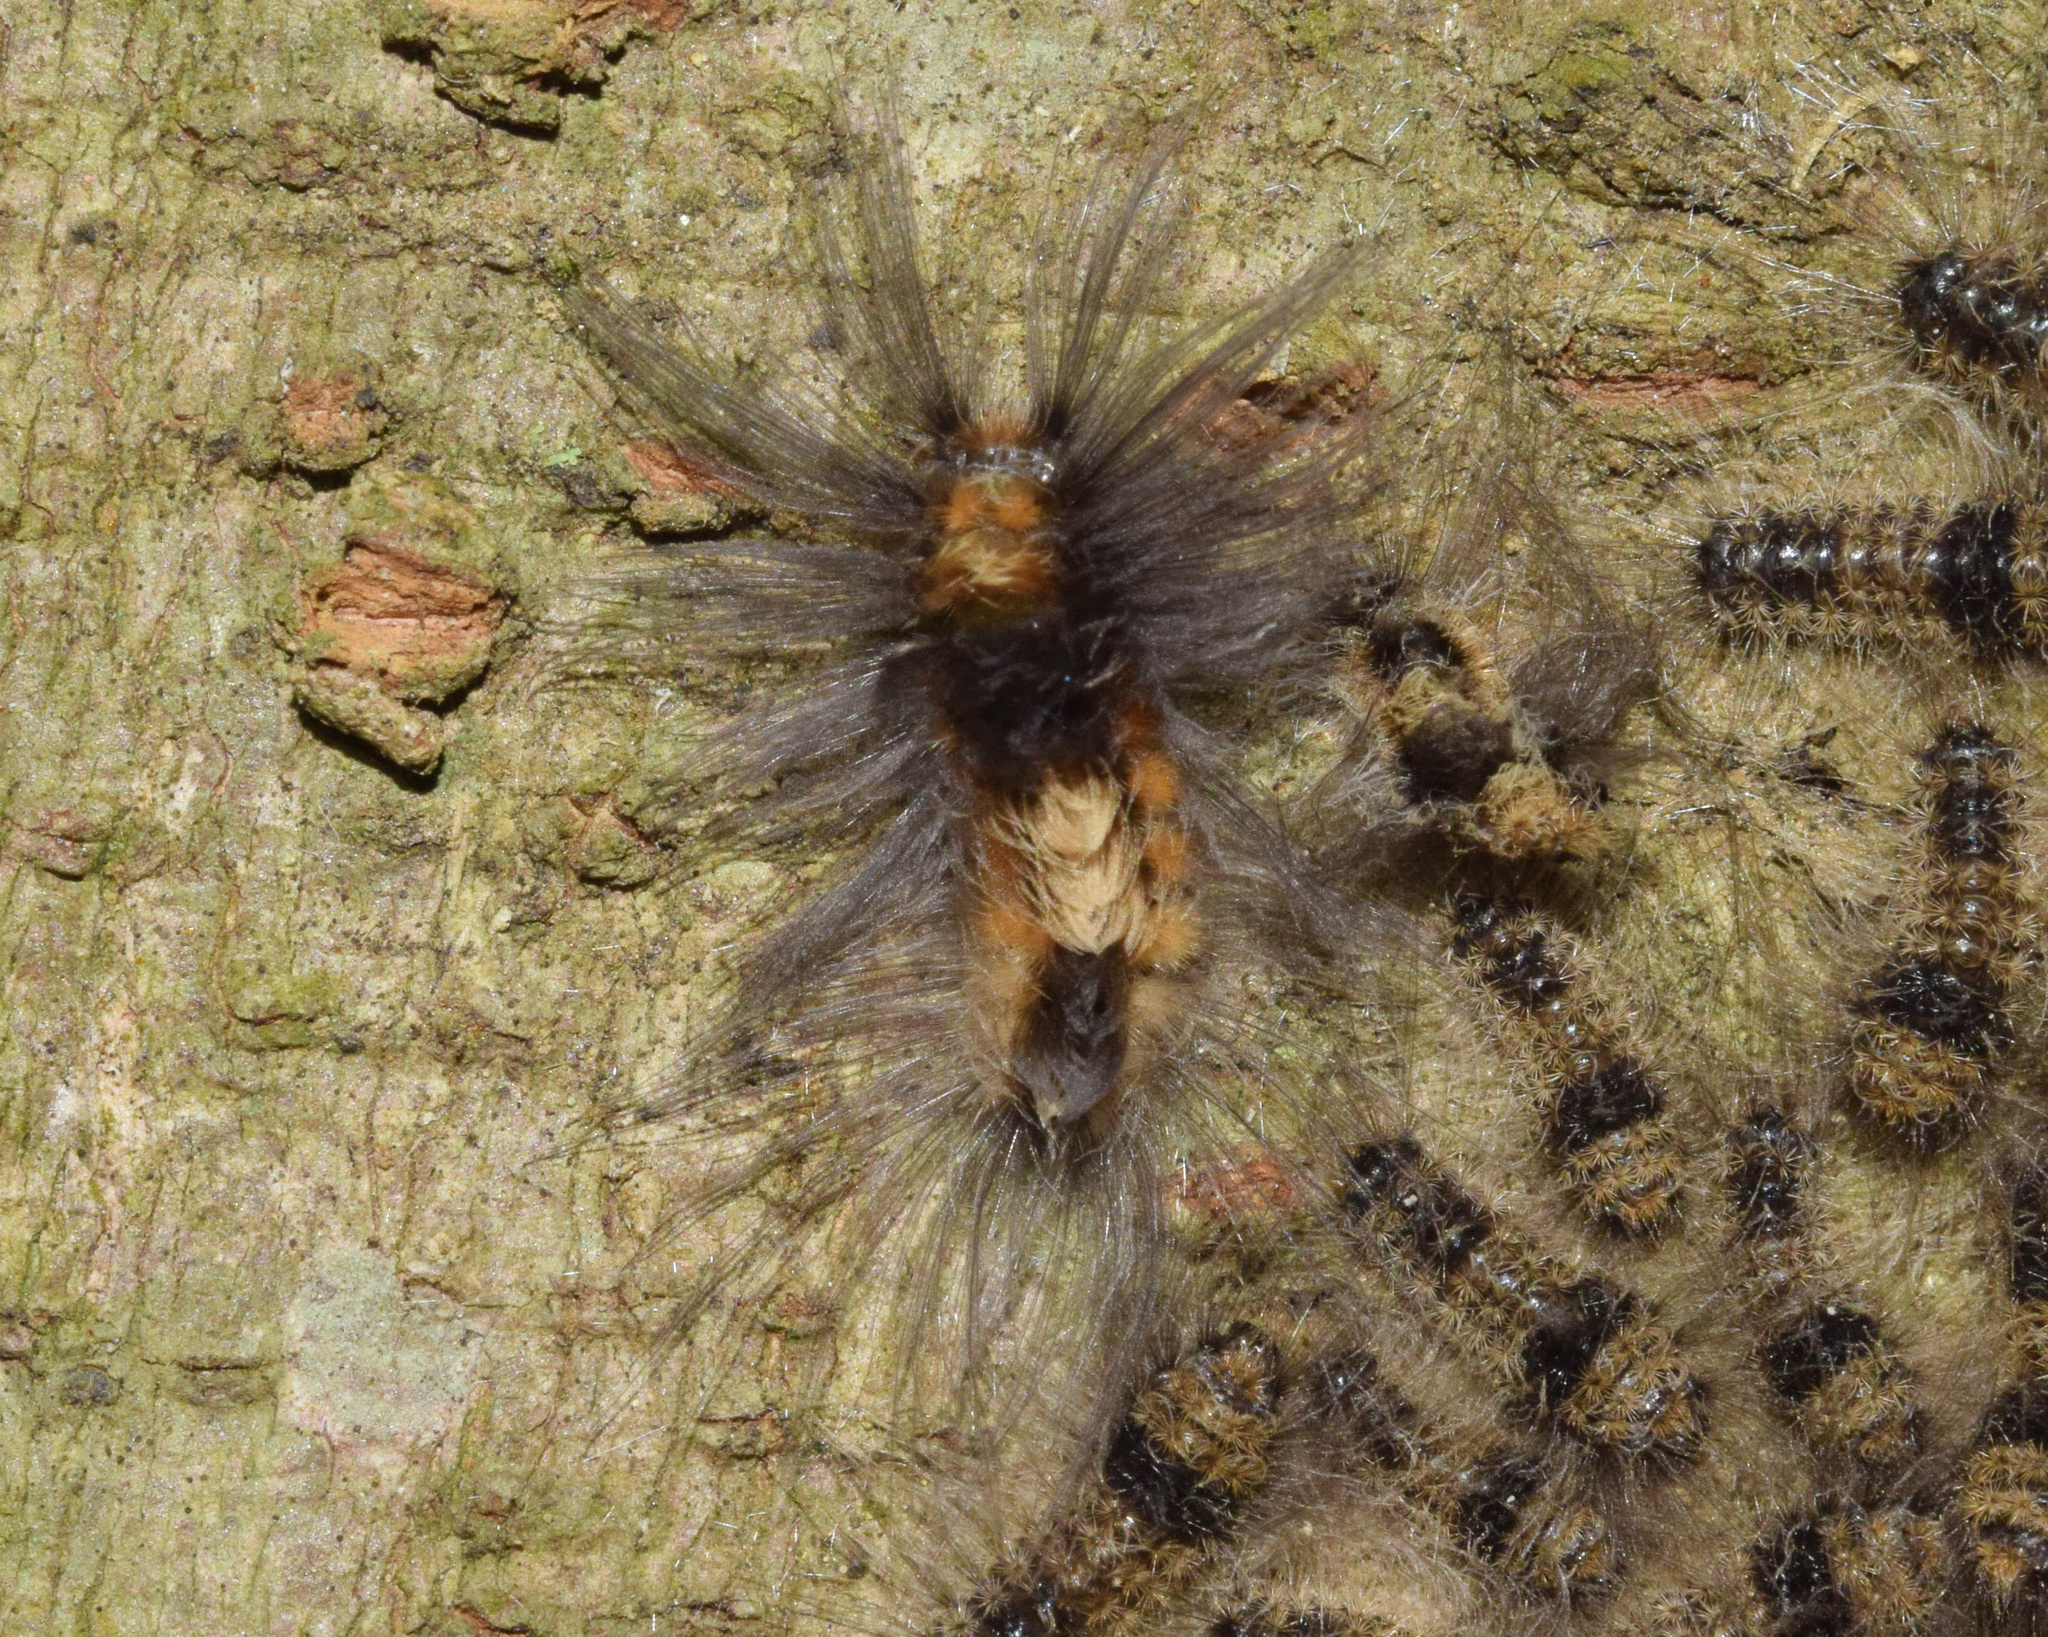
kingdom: Animalia
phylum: Arthropoda
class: Insecta
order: Lepidoptera
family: Erebidae
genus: Tumicla
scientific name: Tumicla sagenaria
